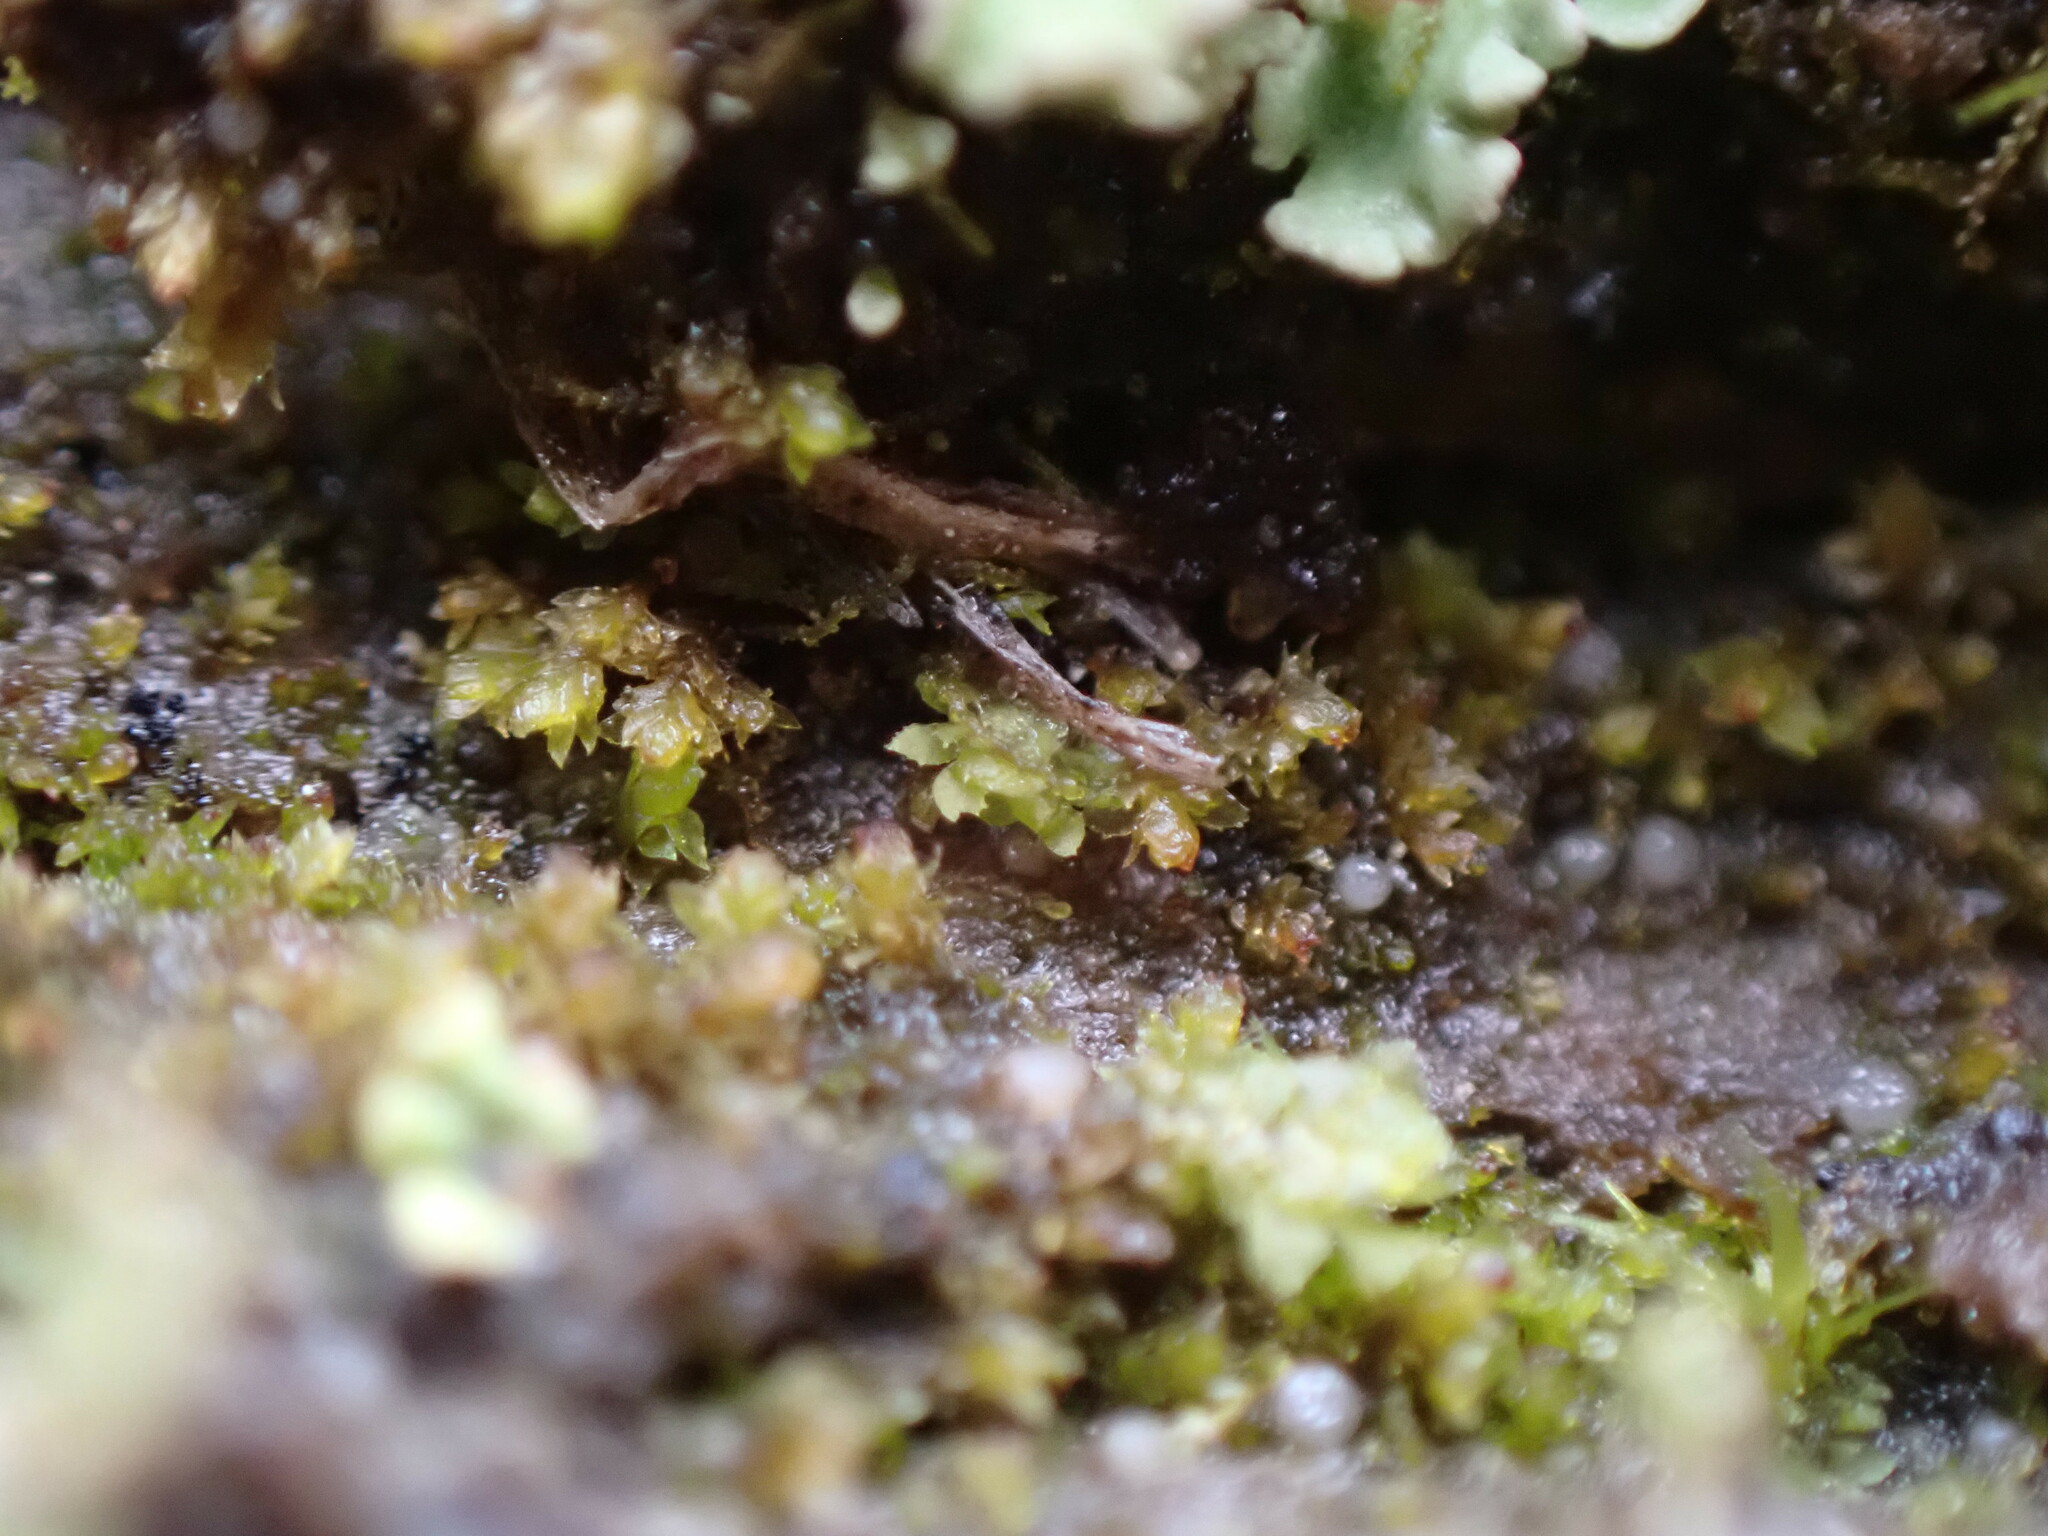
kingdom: Plantae
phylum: Marchantiophyta
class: Jungermanniopsida
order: Jungermanniales
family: Scapaniaceae
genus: Scapania
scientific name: Scapania umbrosa
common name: Shady earwort
